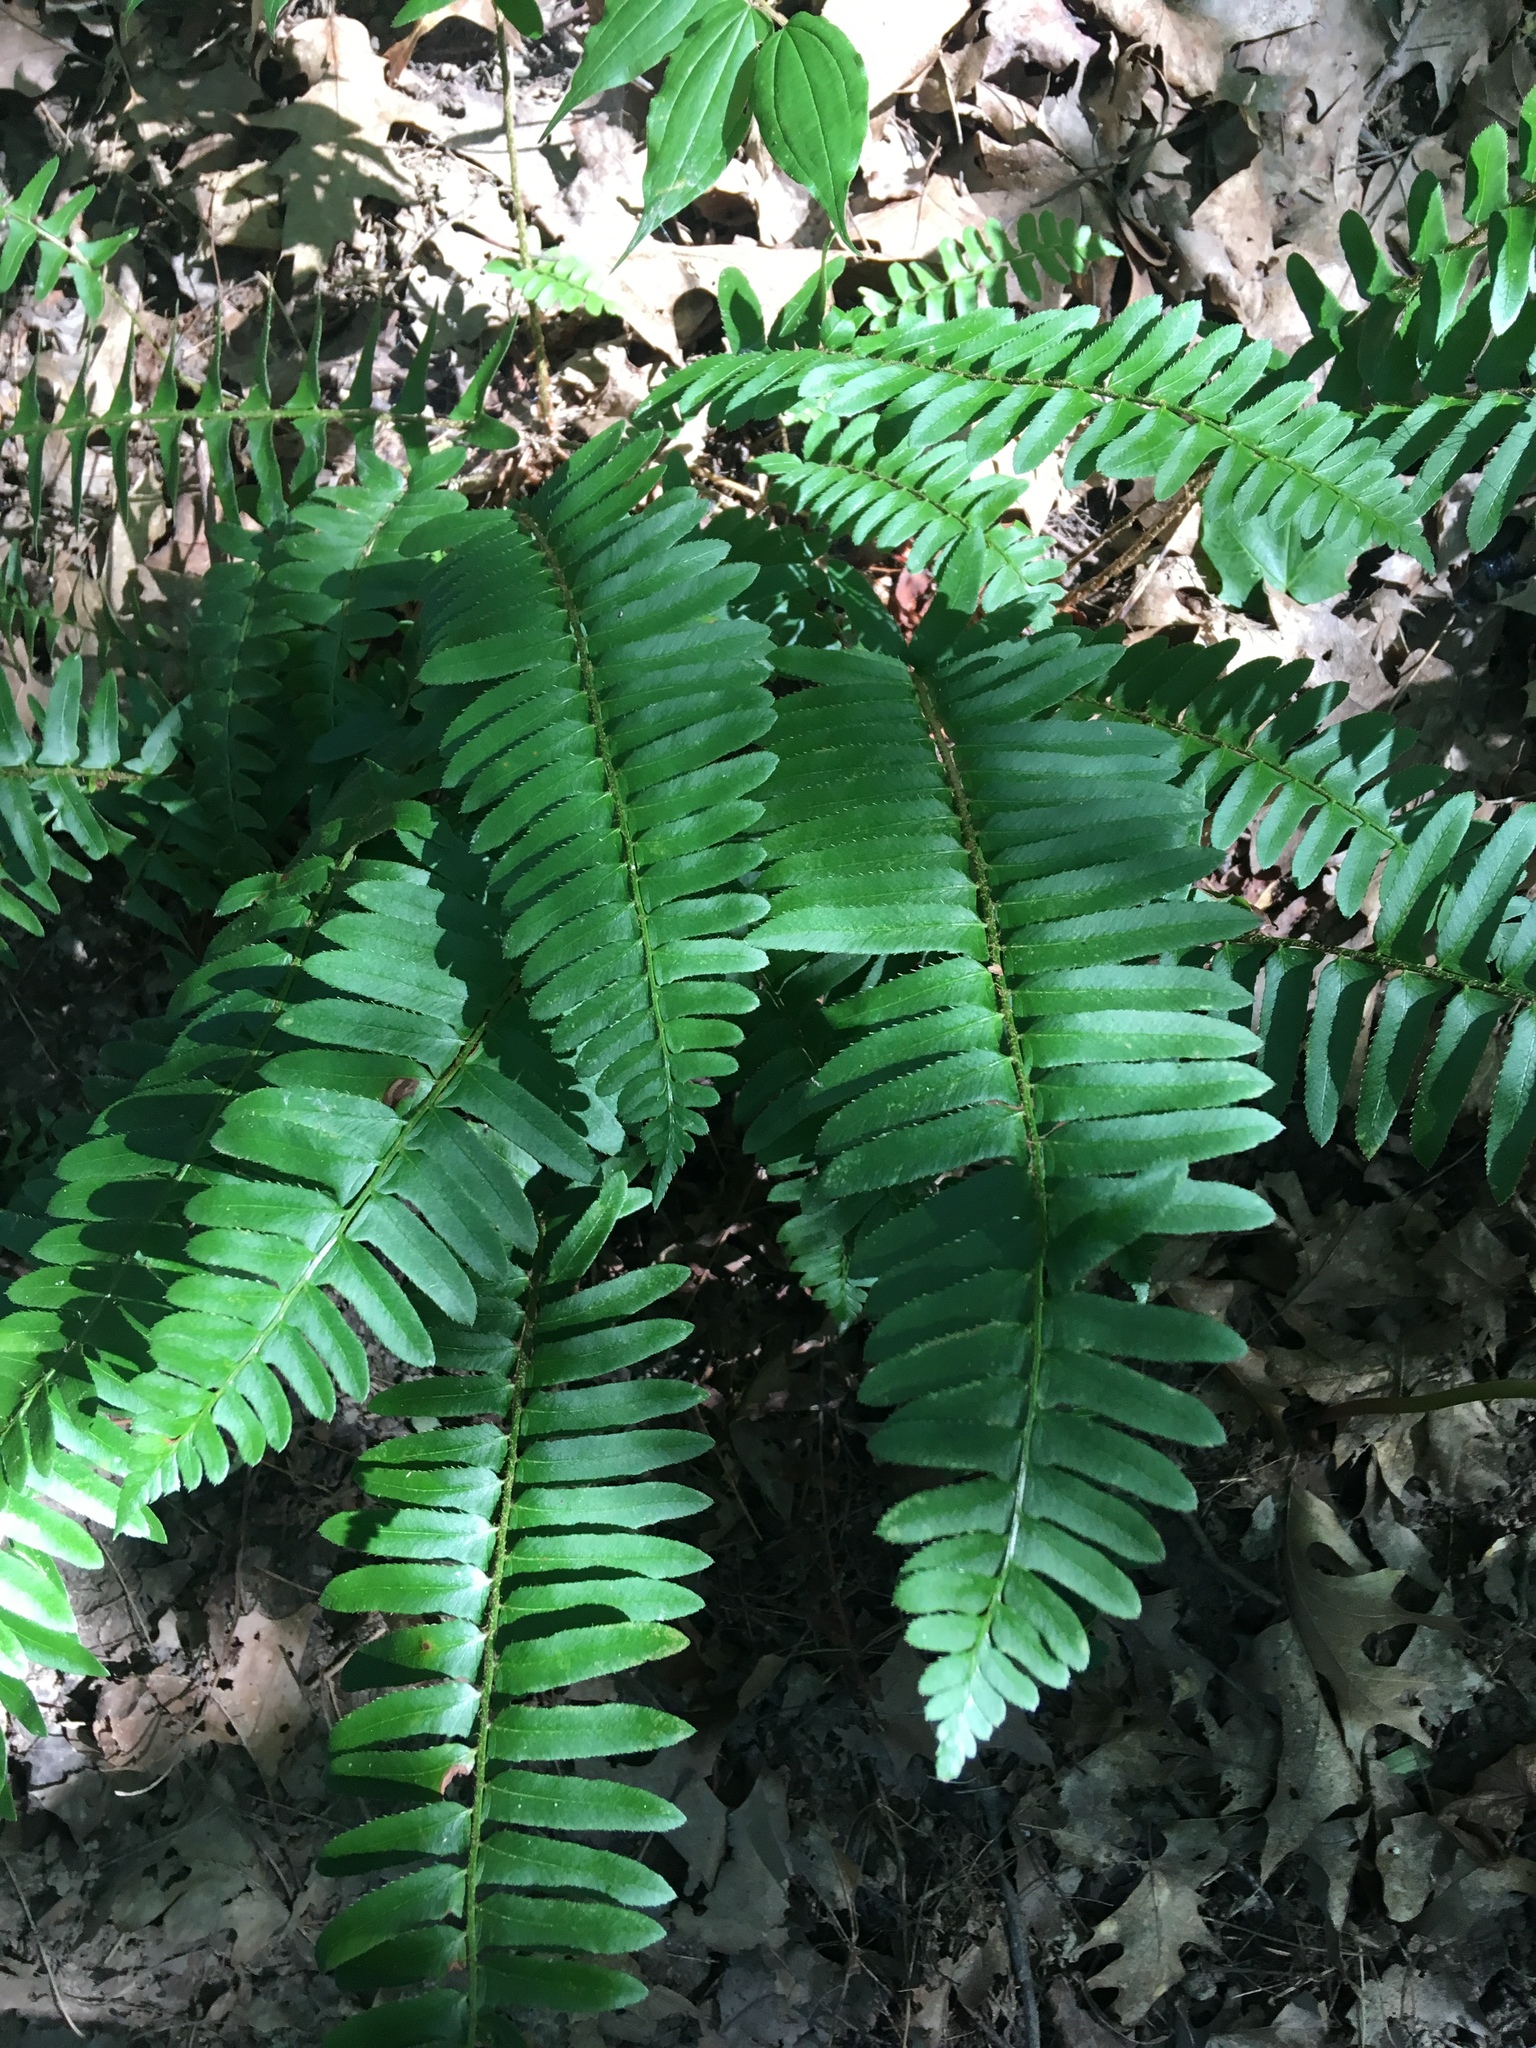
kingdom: Plantae
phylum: Tracheophyta
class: Polypodiopsida
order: Polypodiales
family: Dryopteridaceae
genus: Polystichum
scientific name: Polystichum acrostichoides
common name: Christmas fern
